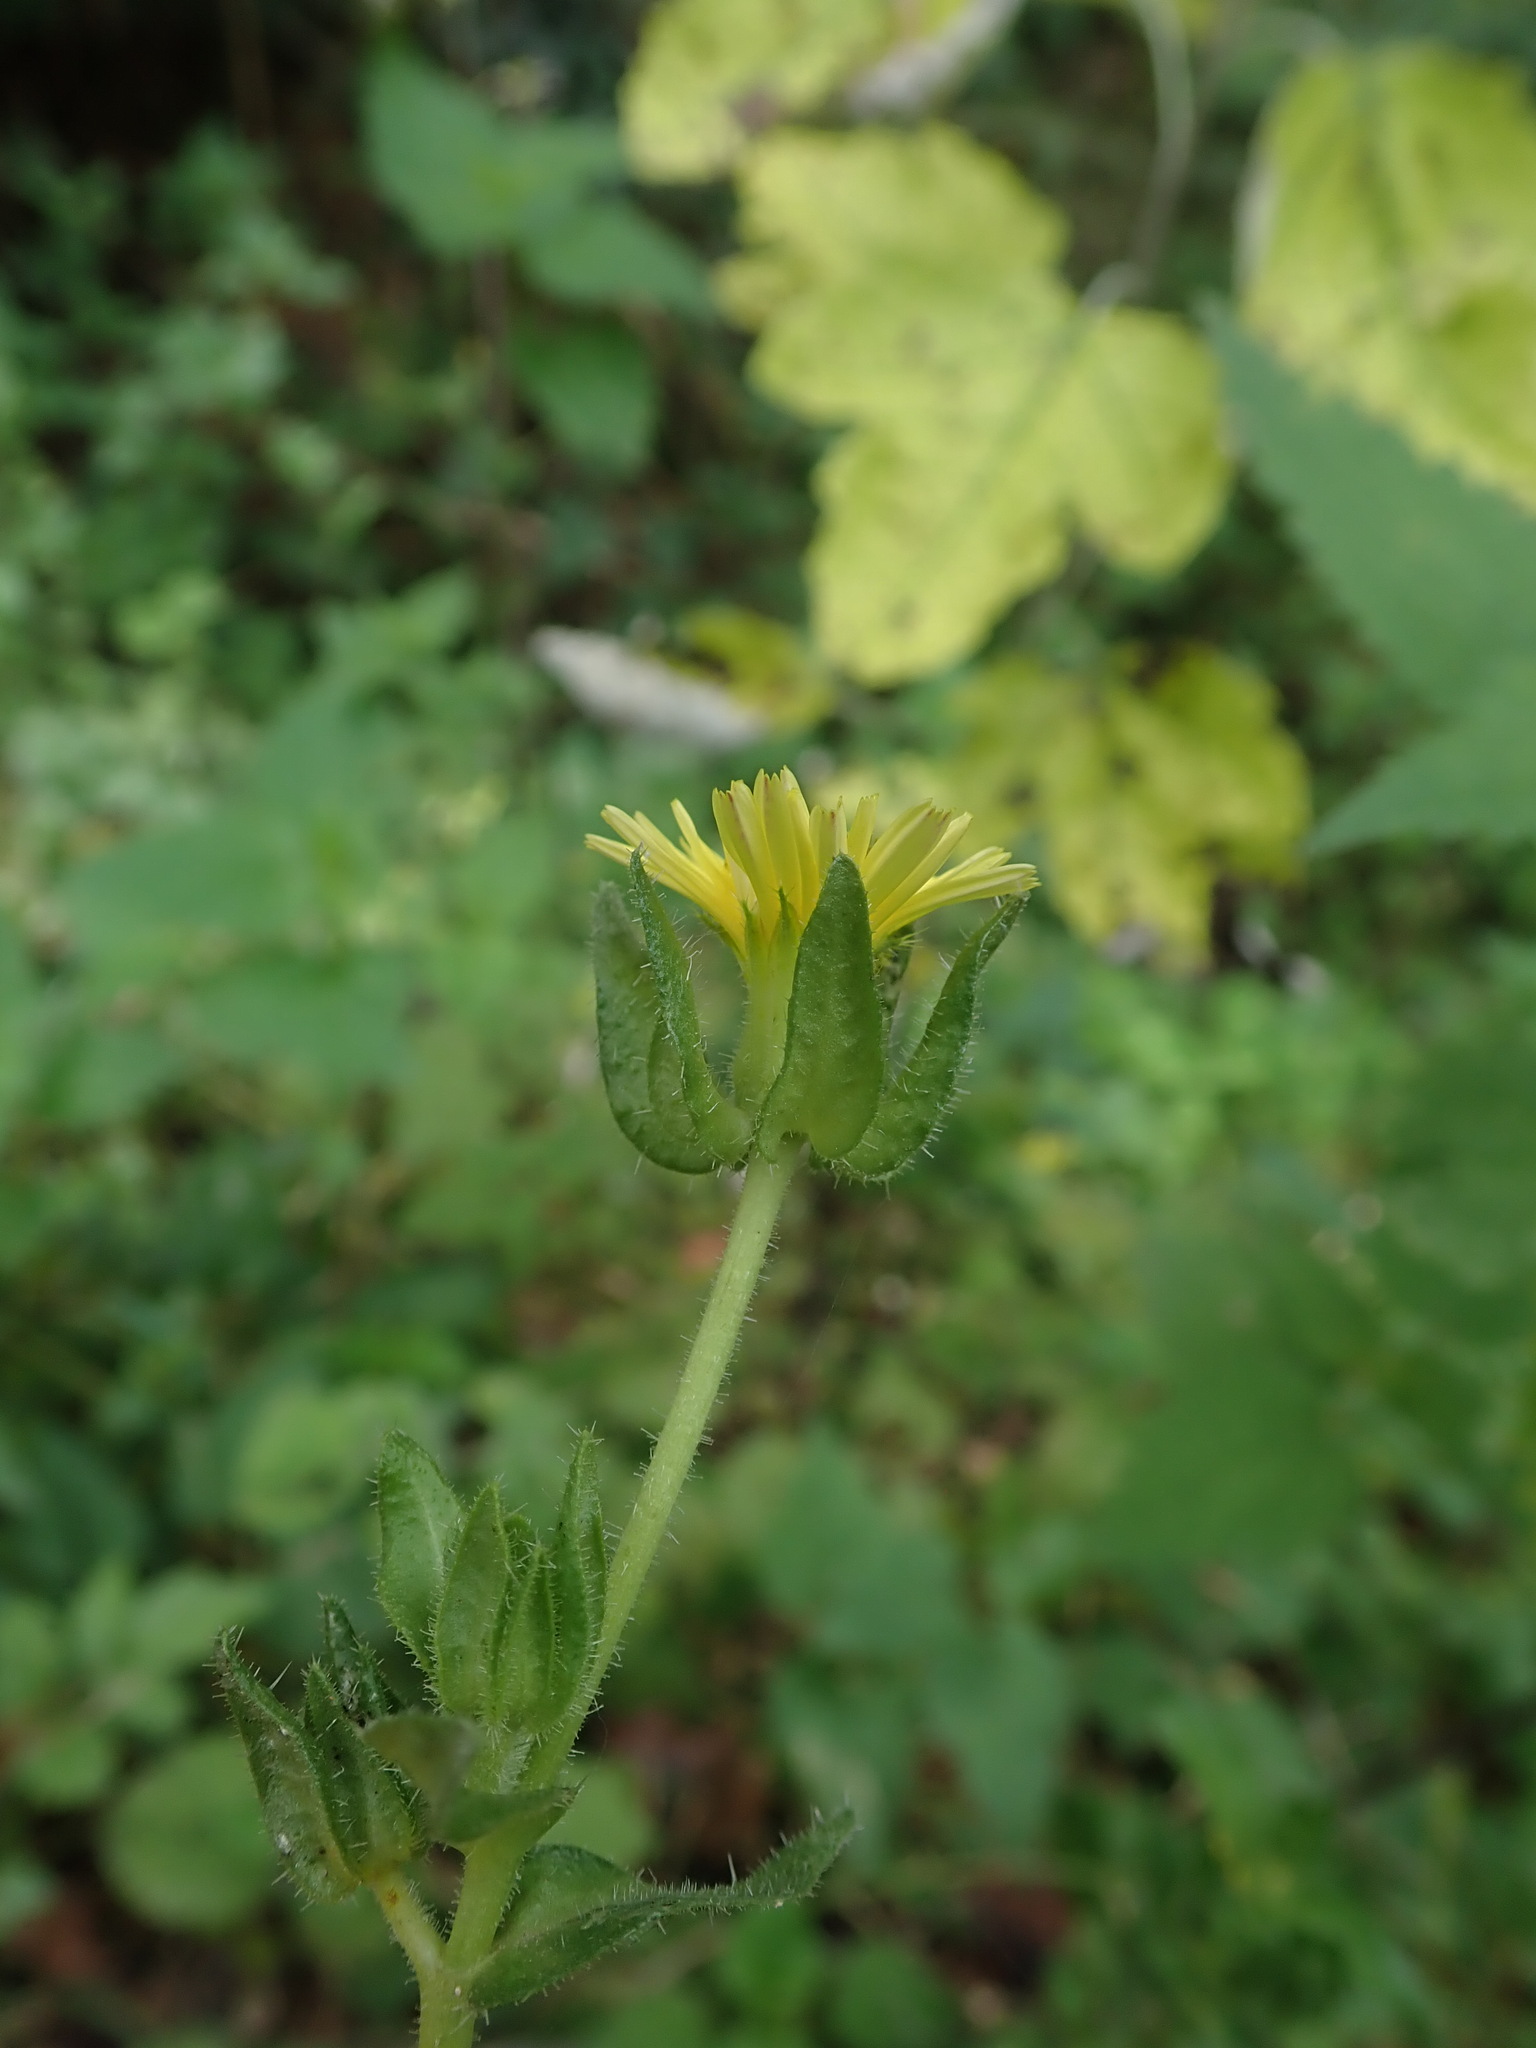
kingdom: Plantae
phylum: Tracheophyta
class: Magnoliopsida
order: Asterales
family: Asteraceae
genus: Helminthotheca
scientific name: Helminthotheca echioides
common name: Ox-tongue
